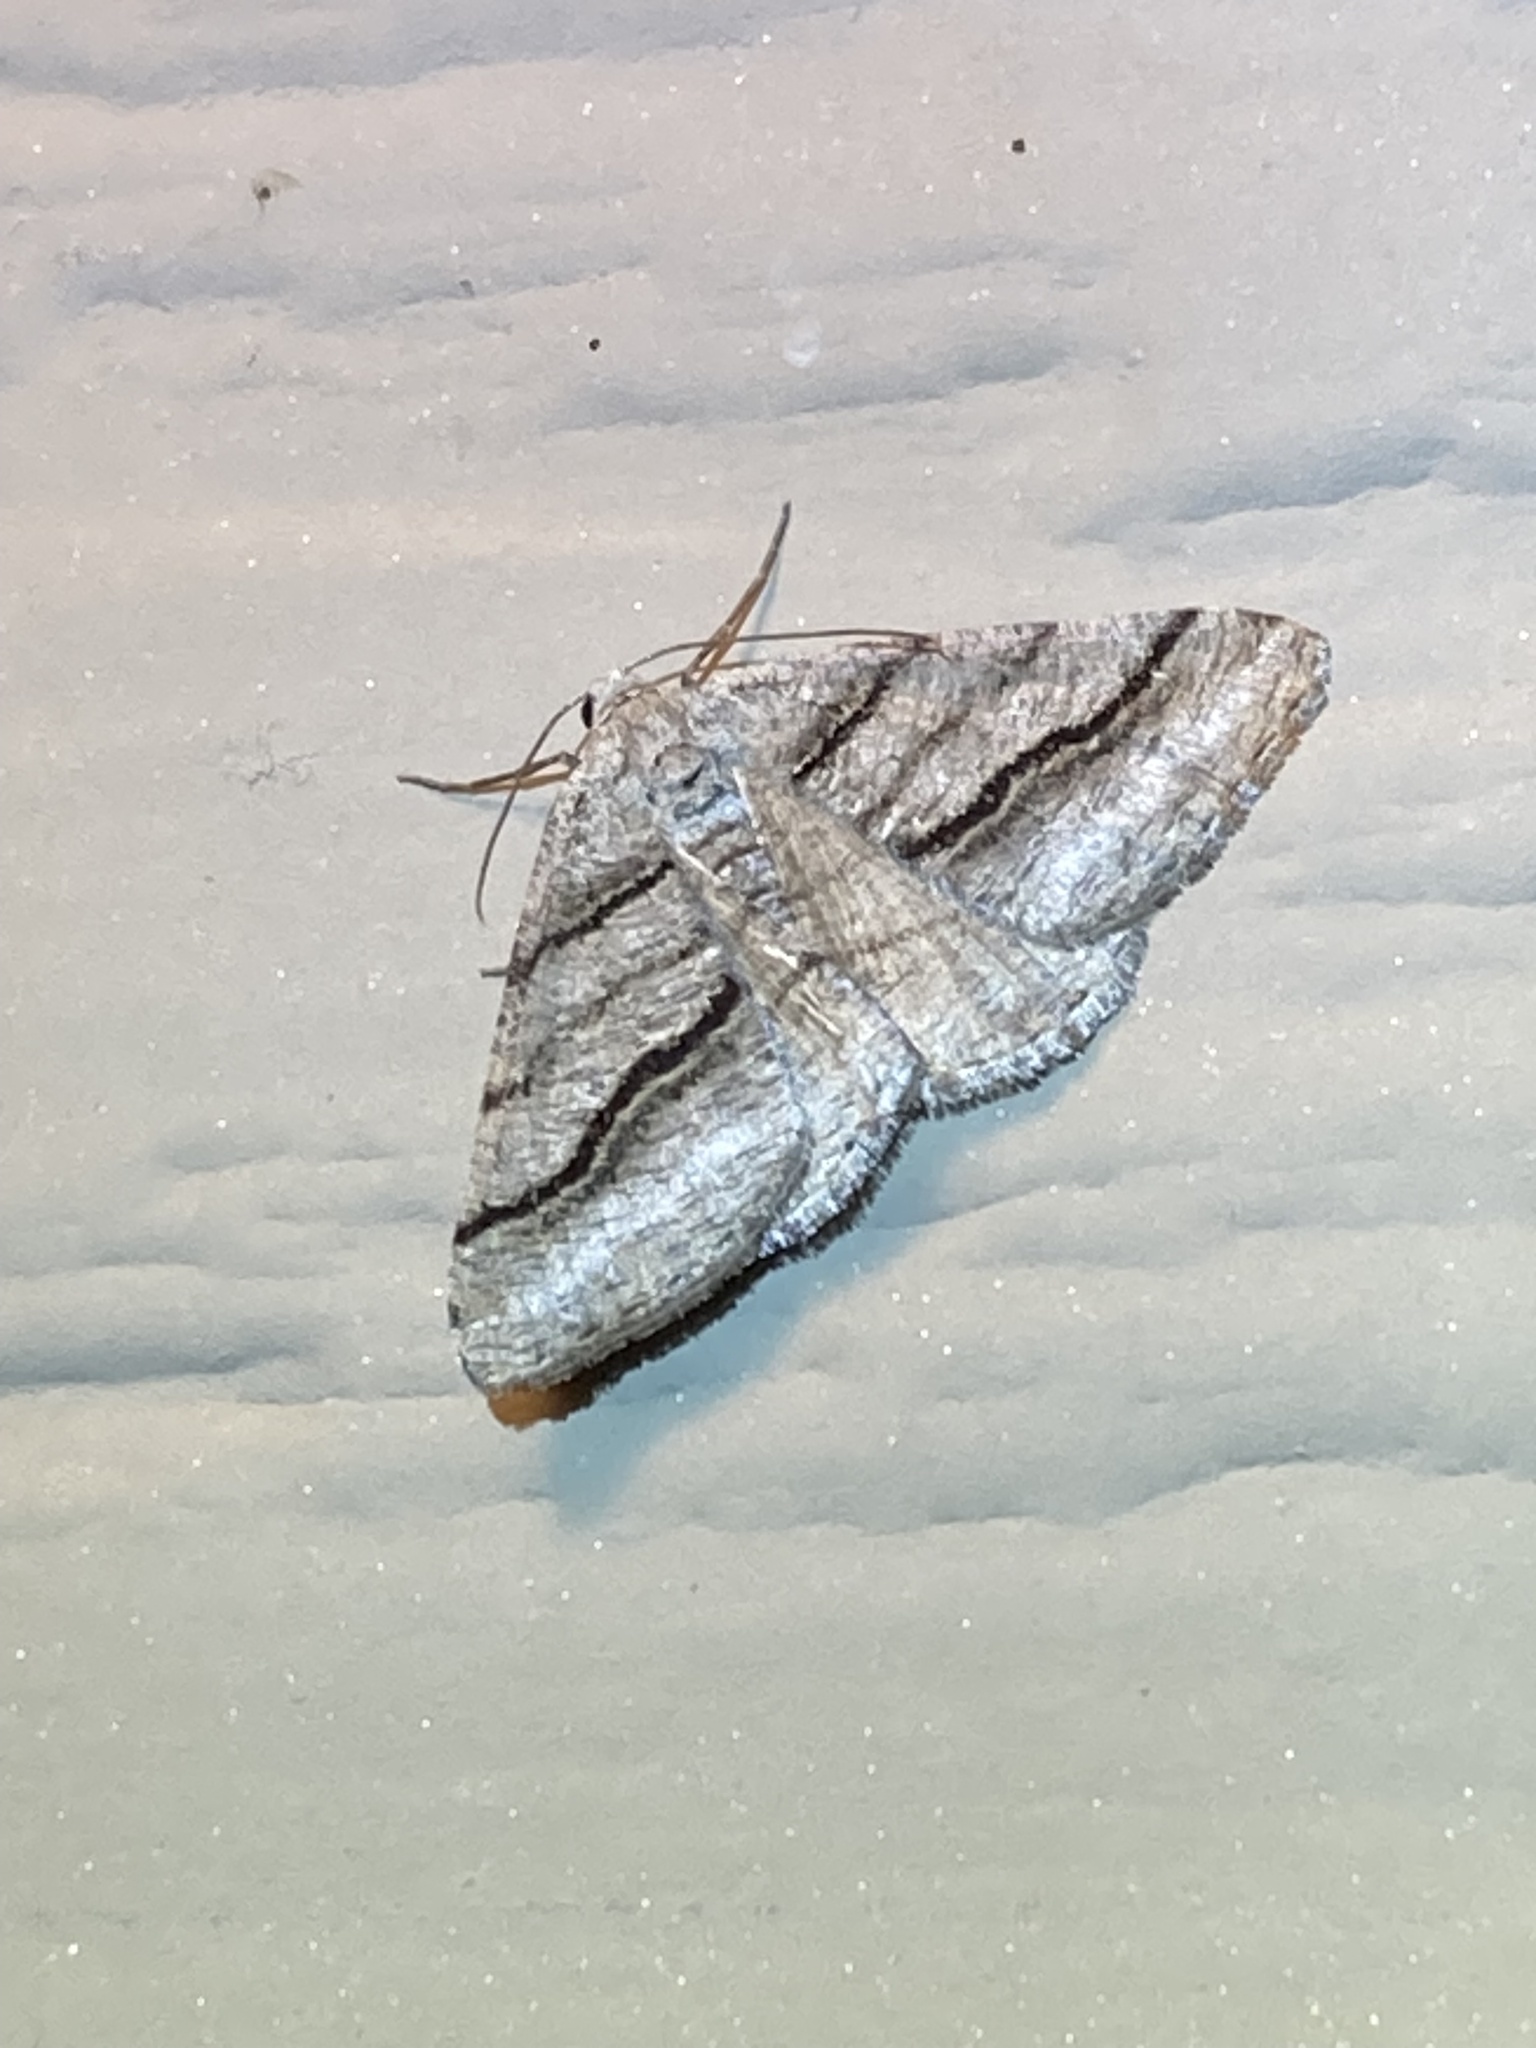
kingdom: Animalia
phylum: Arthropoda
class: Insecta
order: Lepidoptera
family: Geometridae
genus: Digrammia
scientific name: Digrammia continuata
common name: Curve-lined angle
